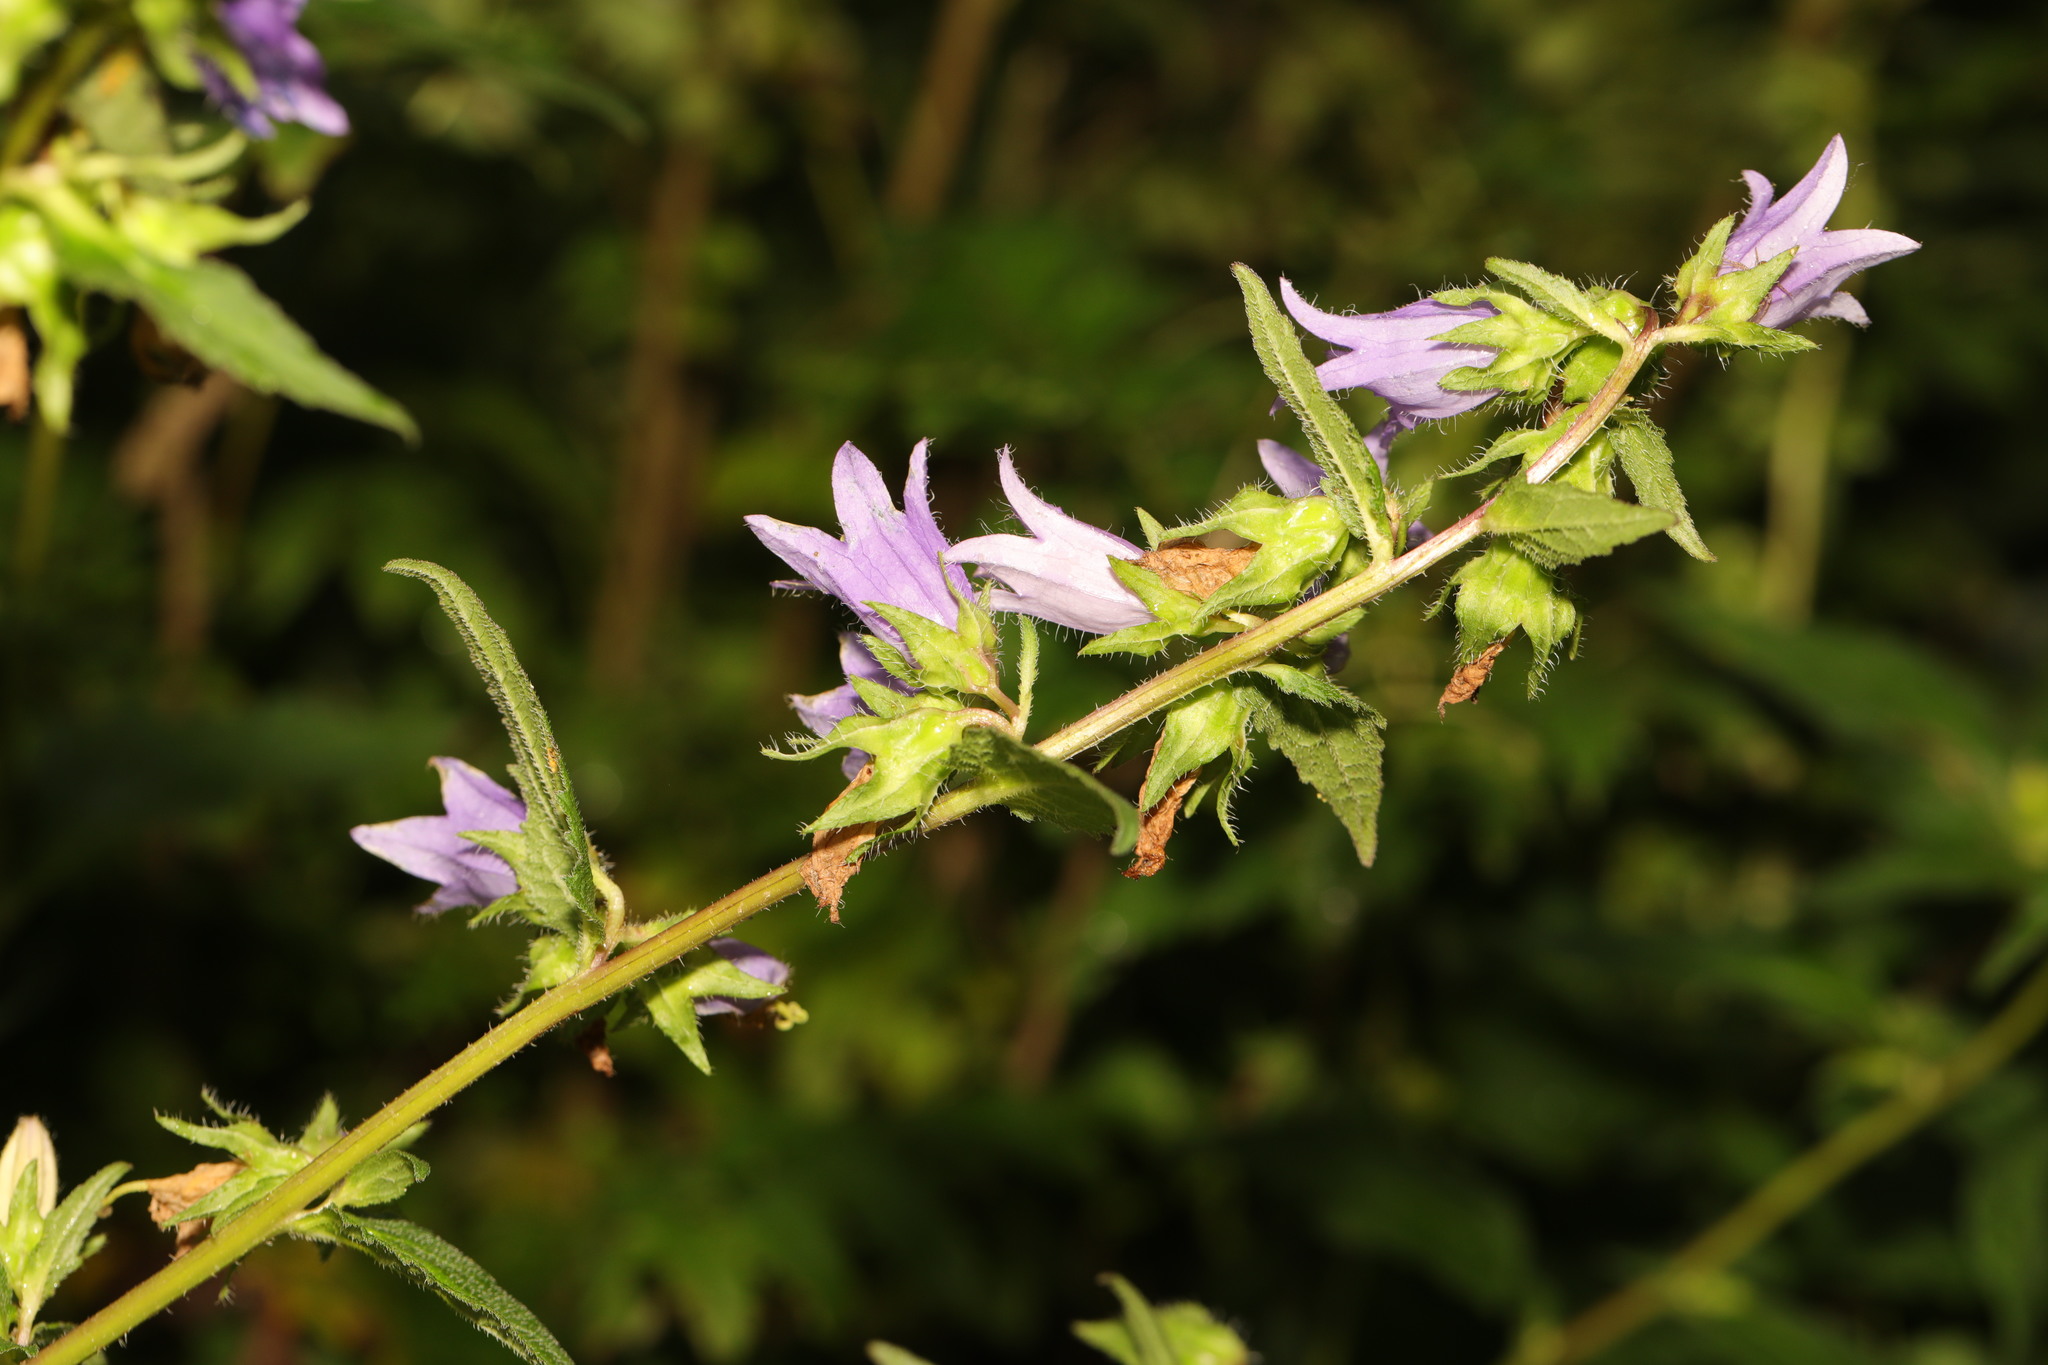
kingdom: Plantae
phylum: Tracheophyta
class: Magnoliopsida
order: Asterales
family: Campanulaceae
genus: Campanula
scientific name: Campanula trachelium
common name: Nettle-leaved bellflower
